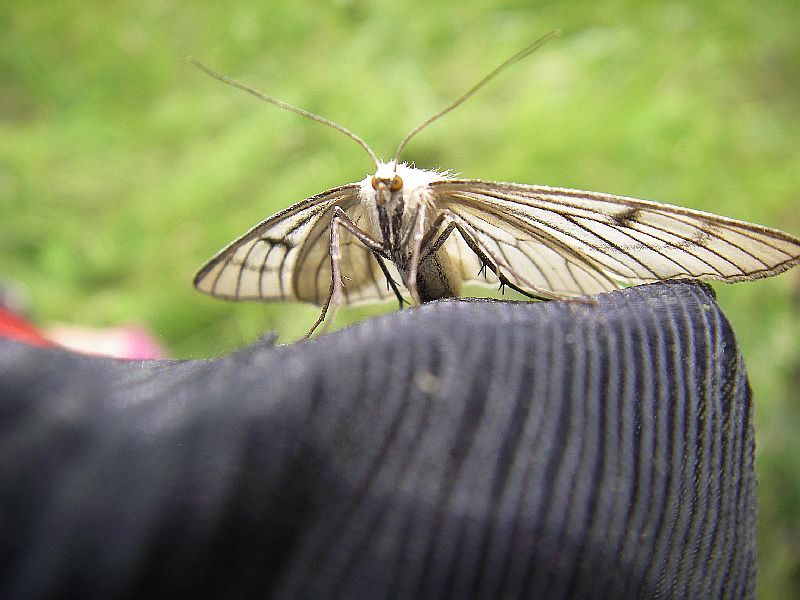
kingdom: Animalia
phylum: Arthropoda
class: Insecta
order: Lepidoptera
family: Geometridae
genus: Siona
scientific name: Siona lineata
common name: Black-veined moth
